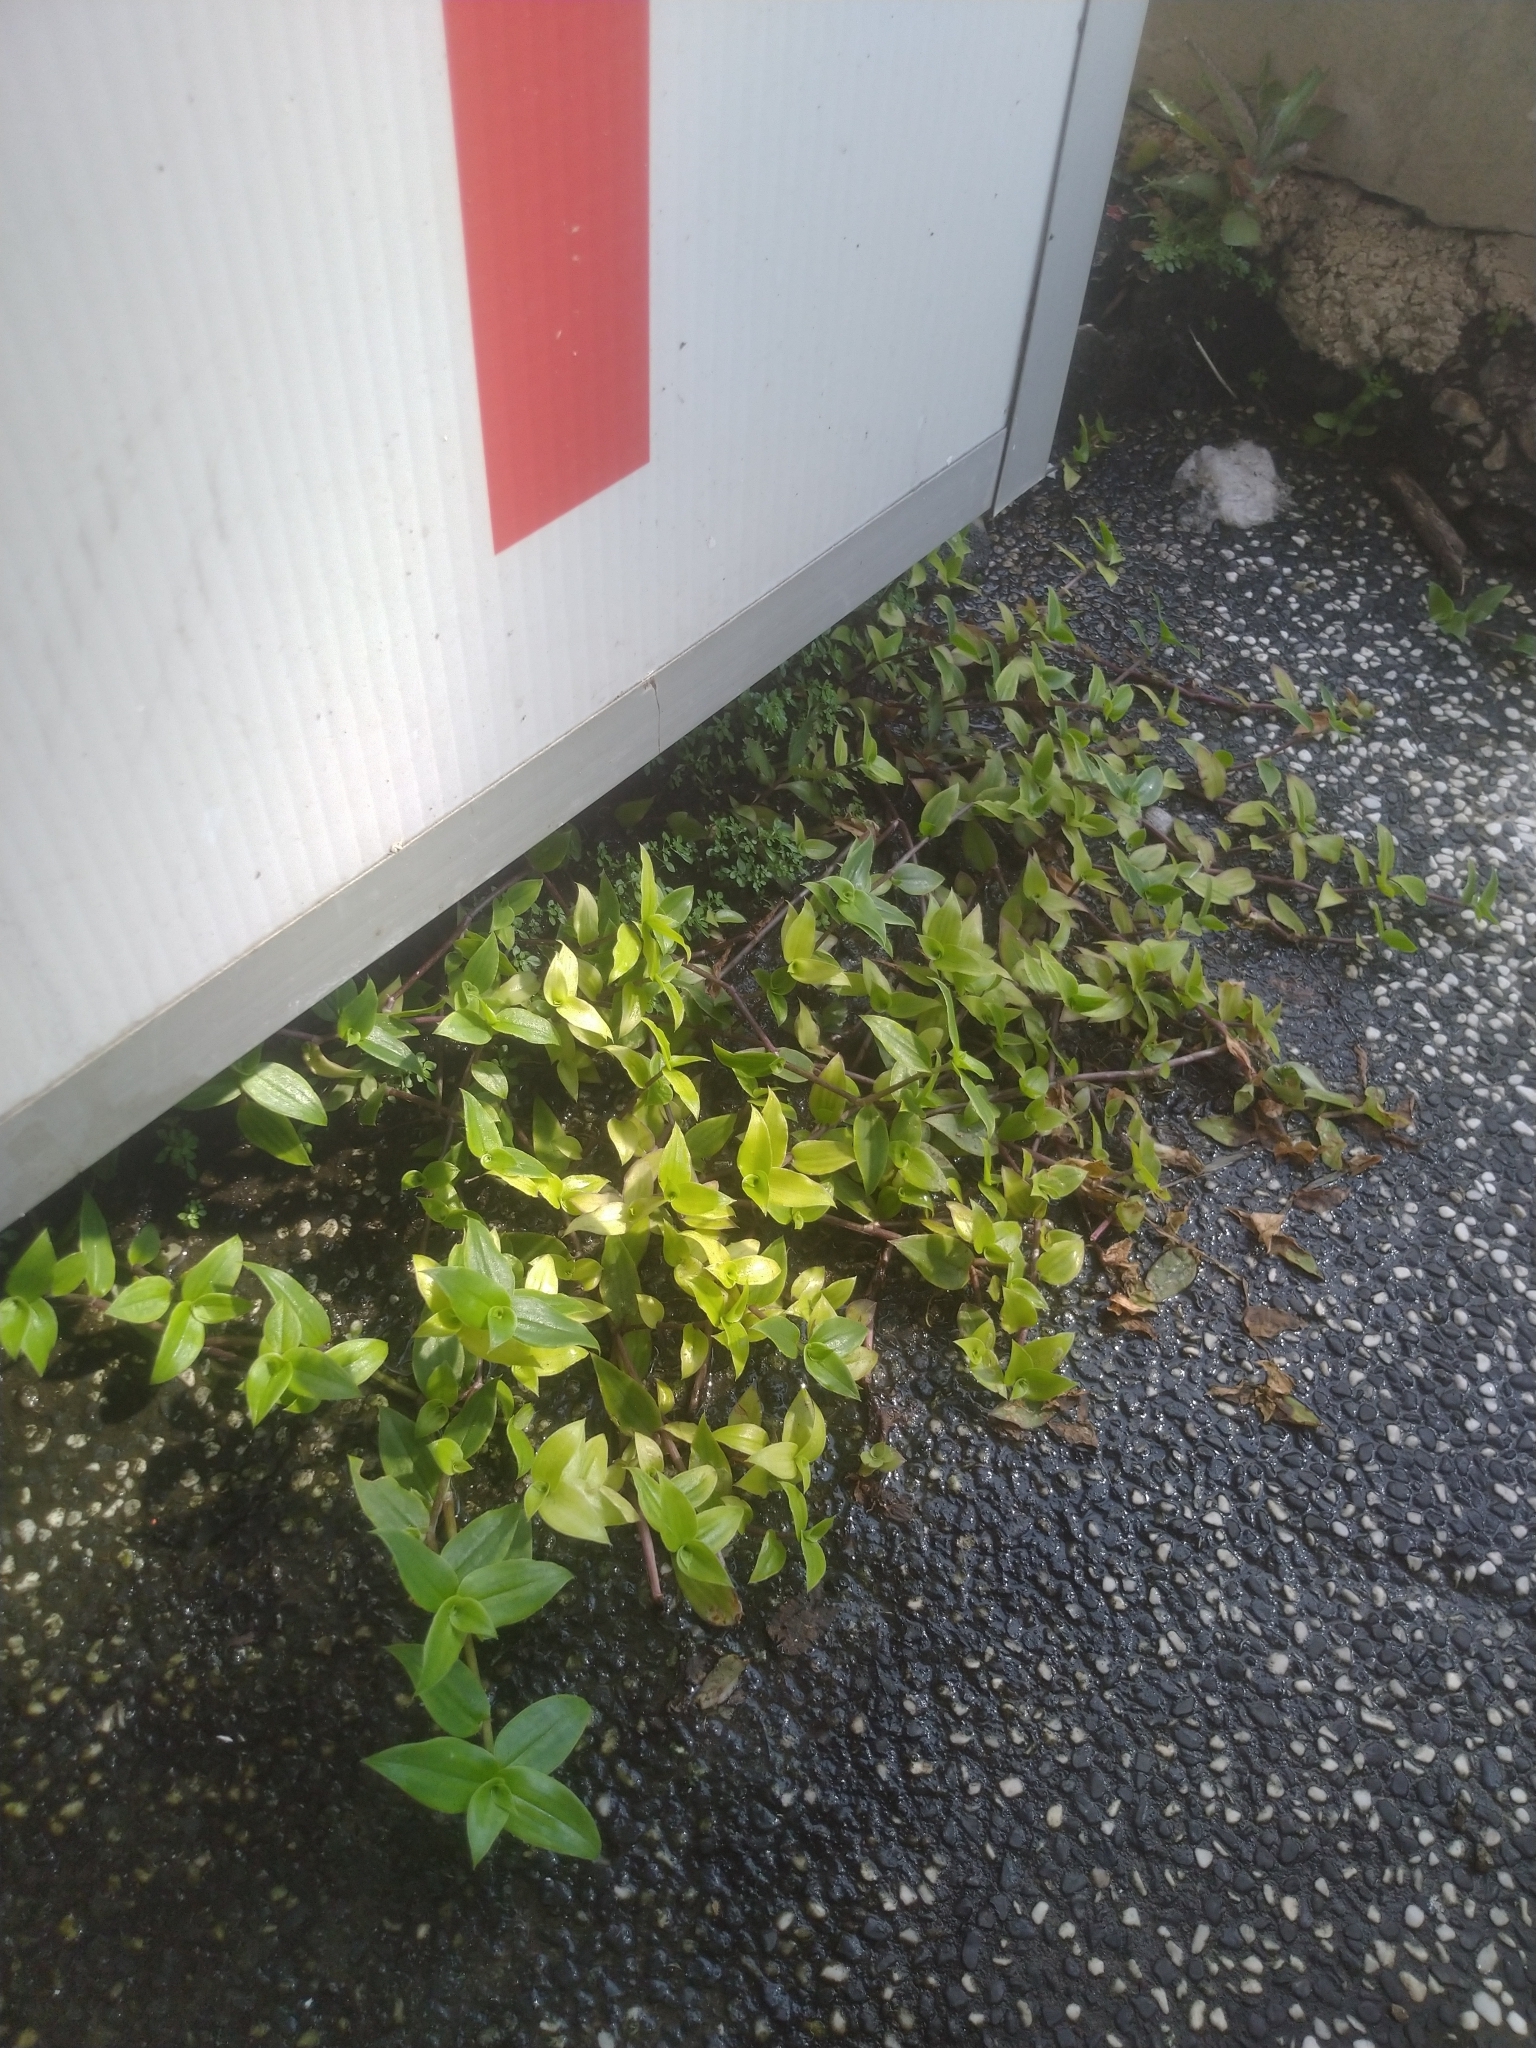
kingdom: Plantae
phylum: Tracheophyta
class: Liliopsida
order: Commelinales
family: Commelinaceae
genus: Callisia
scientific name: Callisia repens
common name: Creeping inchplant
